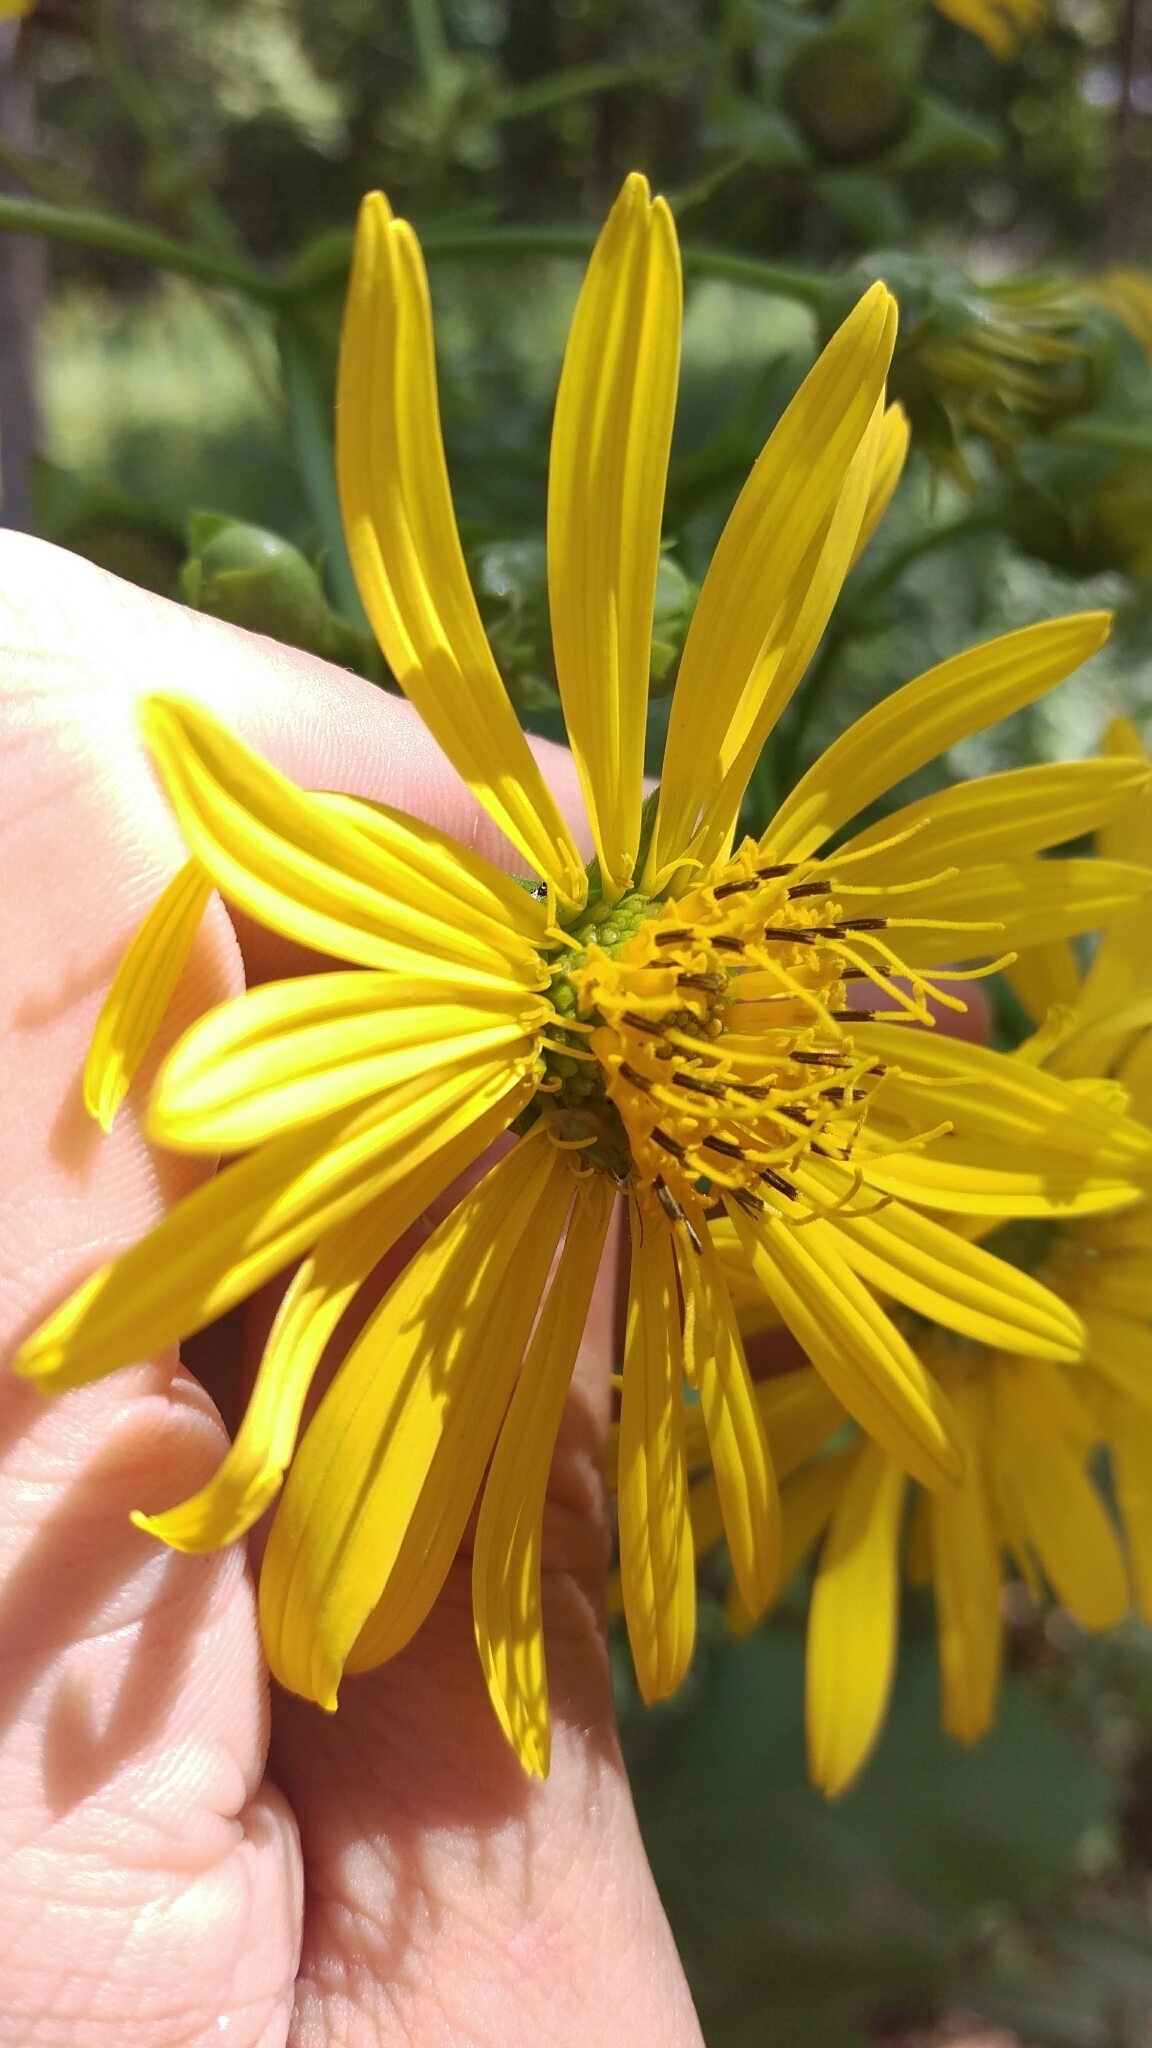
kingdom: Plantae
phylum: Tracheophyta
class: Magnoliopsida
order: Asterales
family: Asteraceae
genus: Silphium
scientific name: Silphium
